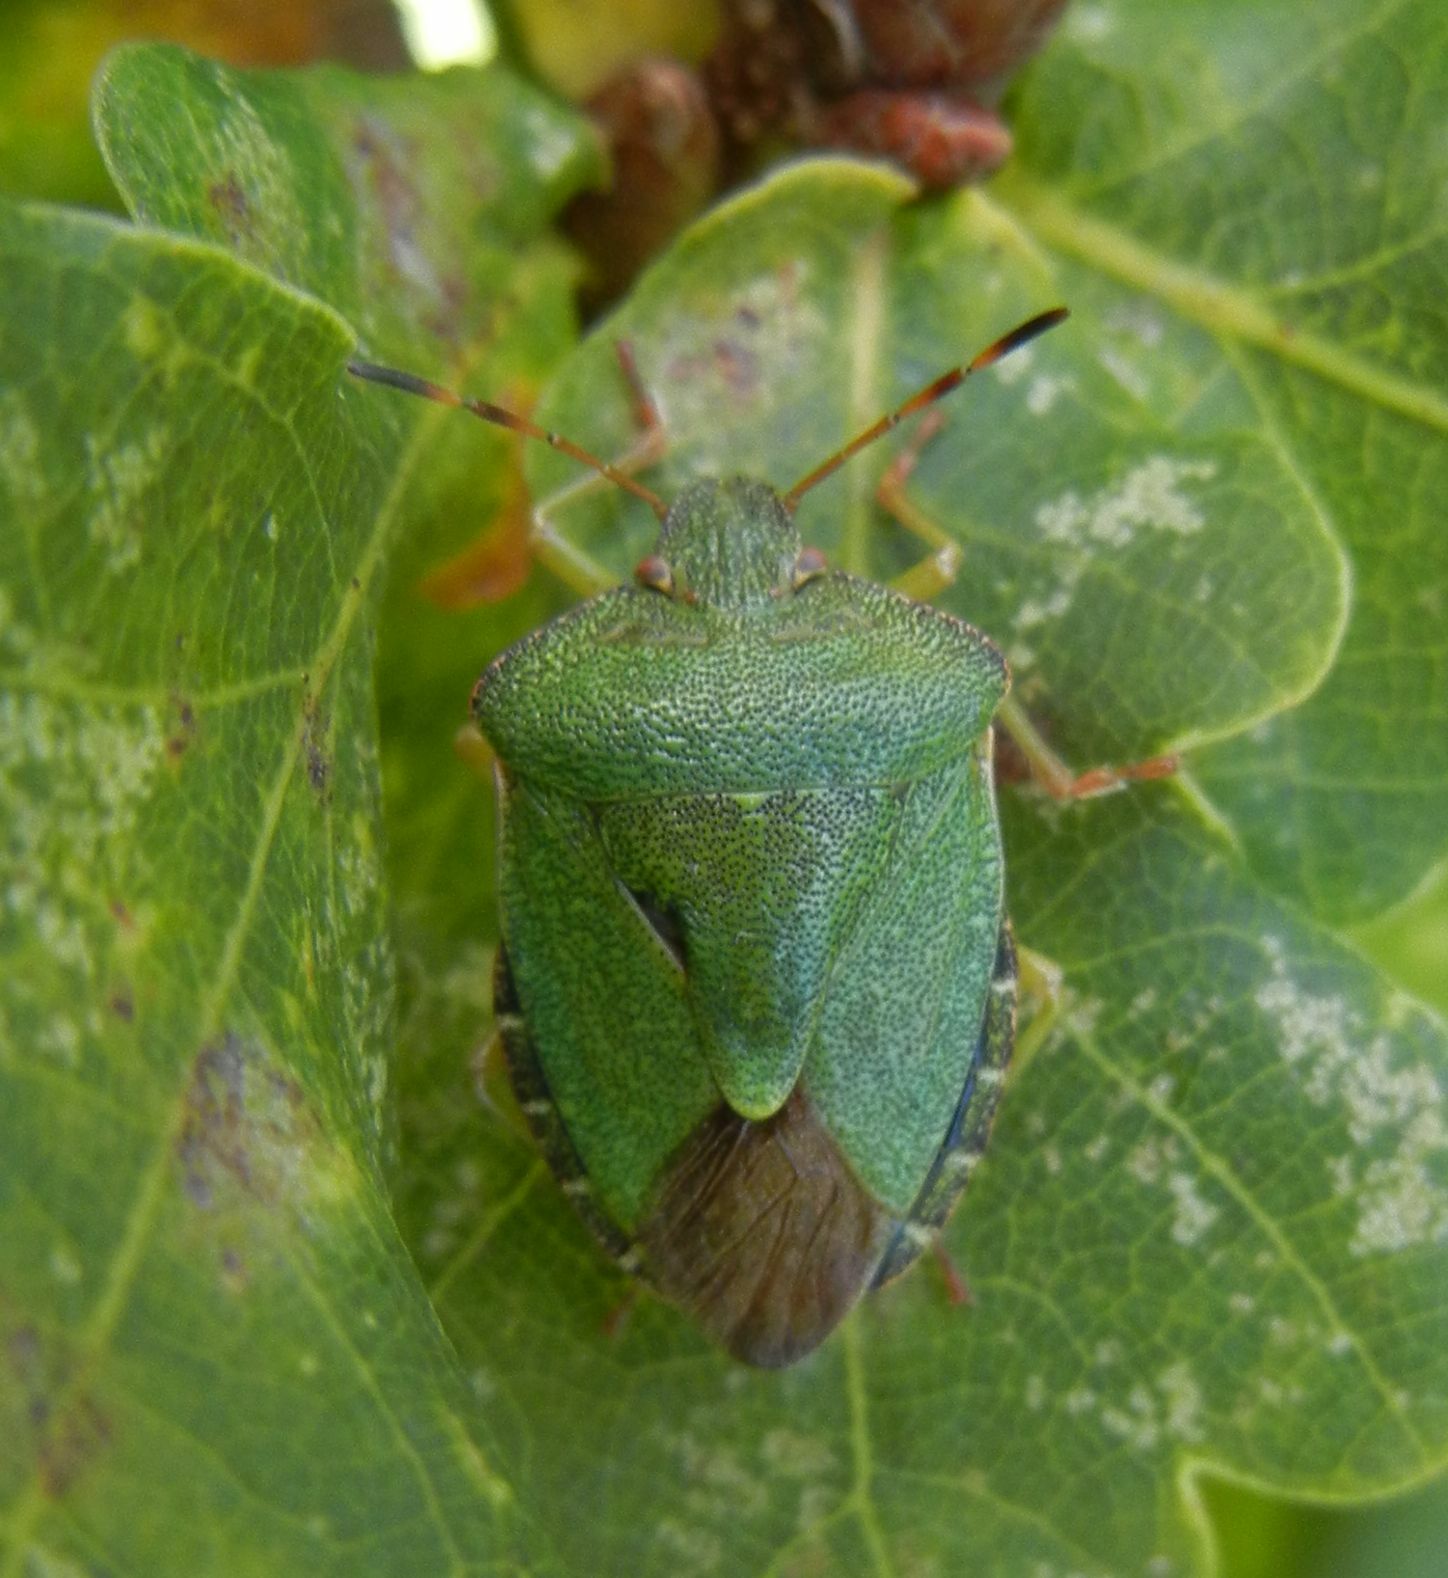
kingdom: Animalia
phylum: Arthropoda
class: Insecta
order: Hemiptera
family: Pentatomidae
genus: Palomena
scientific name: Palomena prasina
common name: Green shieldbug
